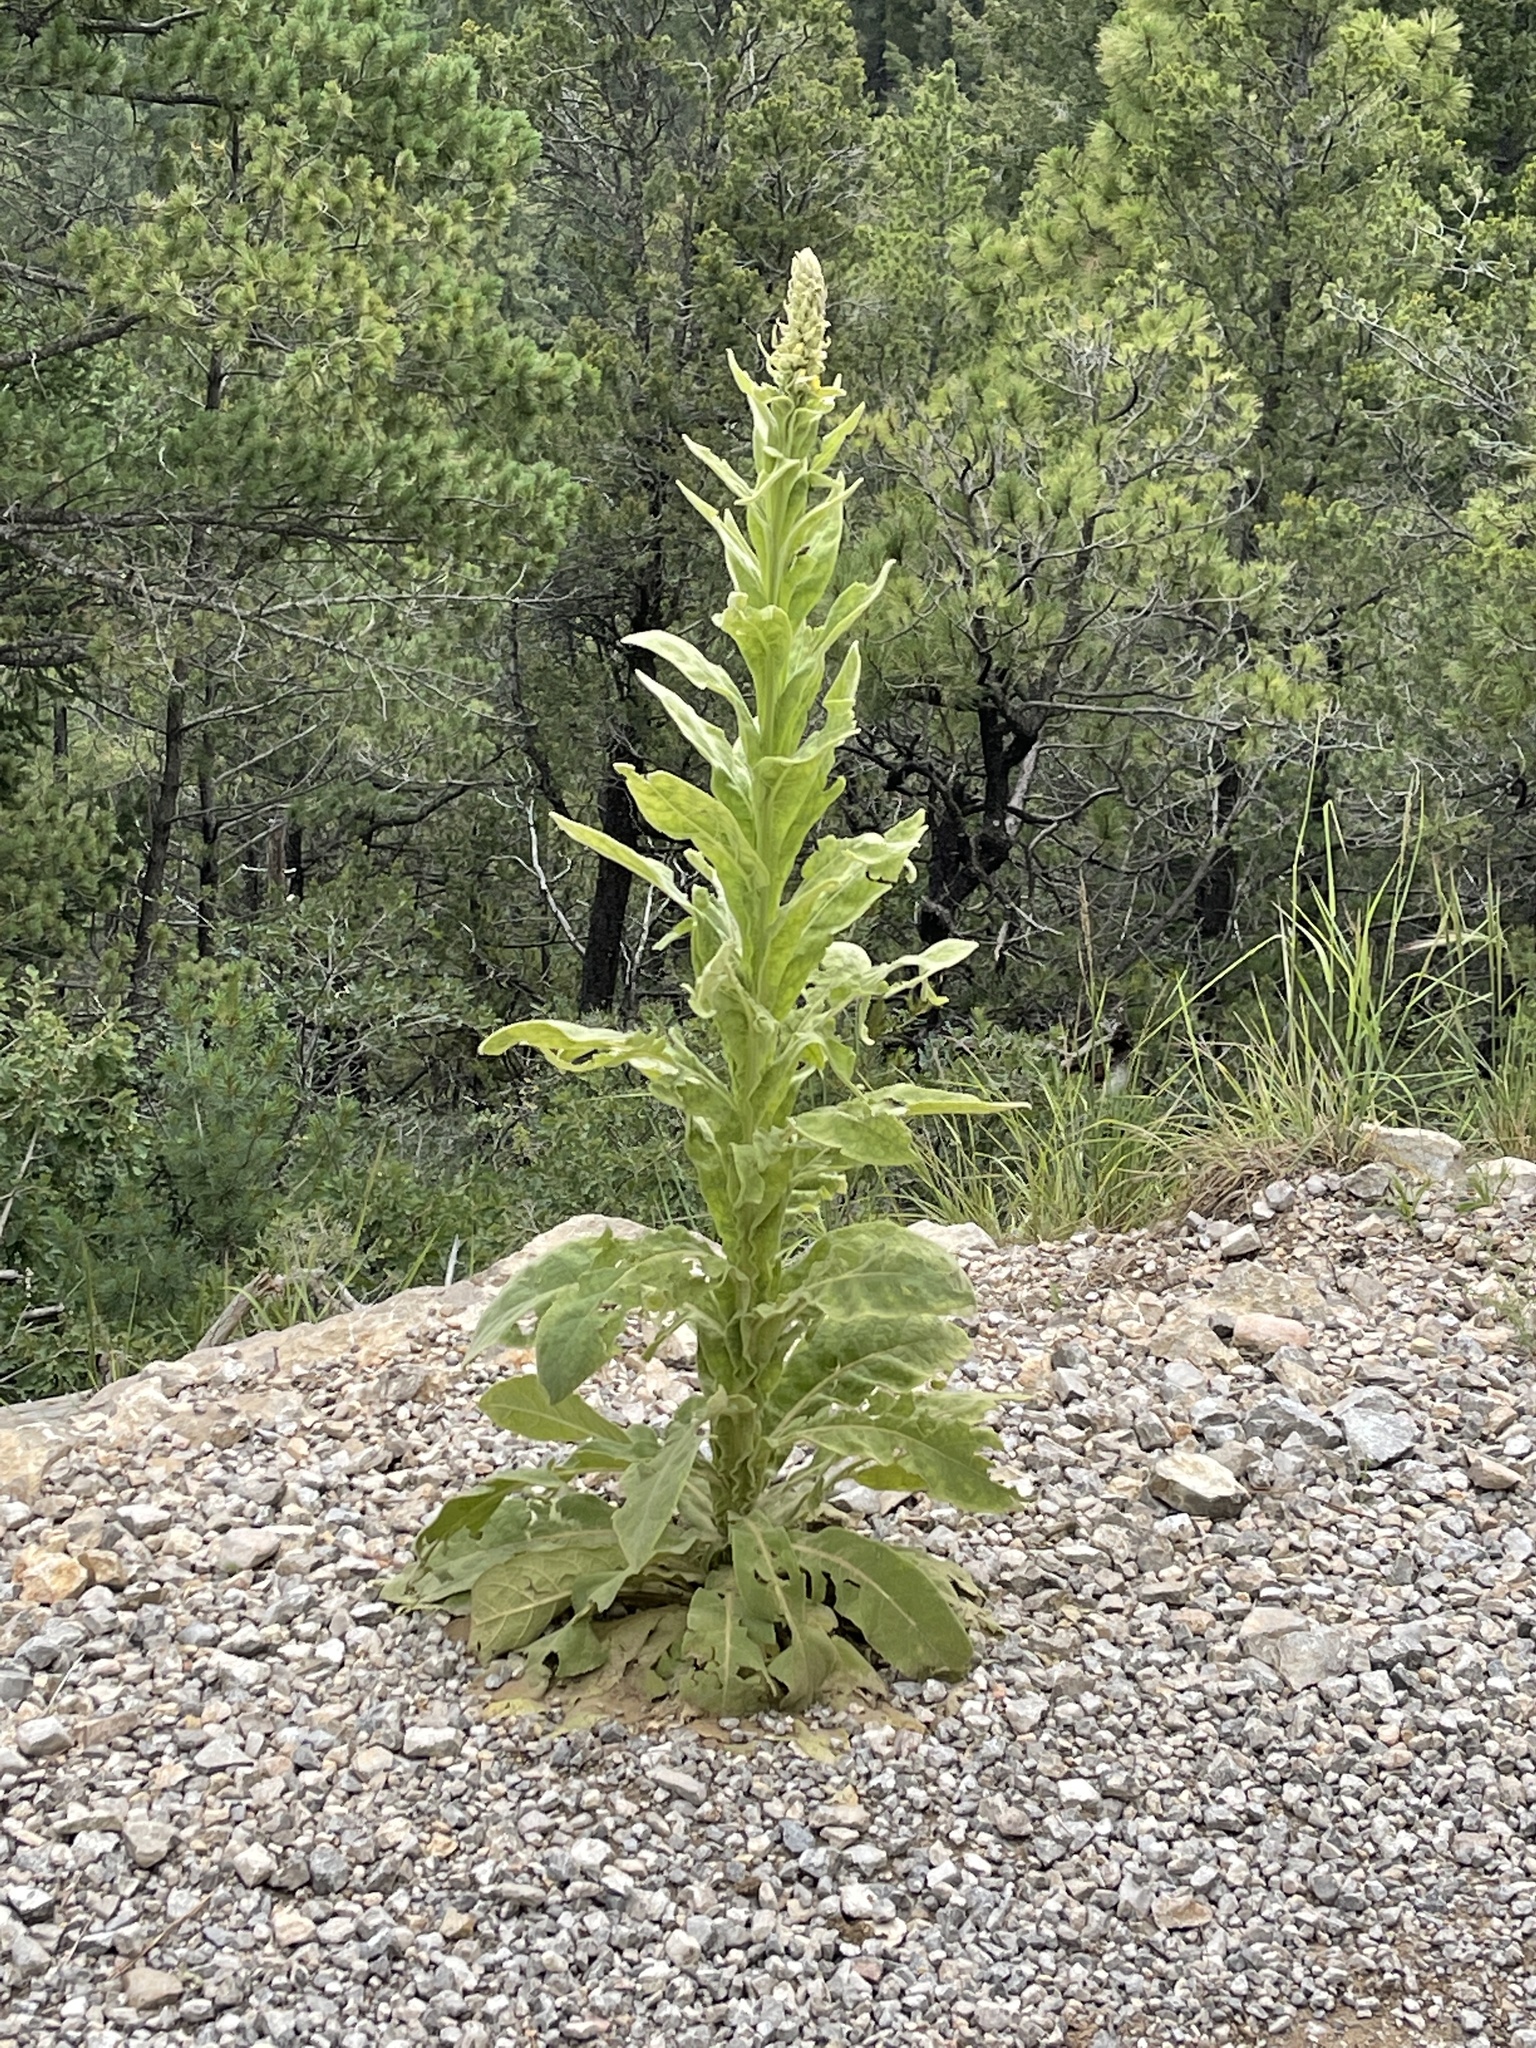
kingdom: Plantae
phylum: Tracheophyta
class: Magnoliopsida
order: Lamiales
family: Scrophulariaceae
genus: Verbascum
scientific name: Verbascum thapsus
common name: Common mullein
